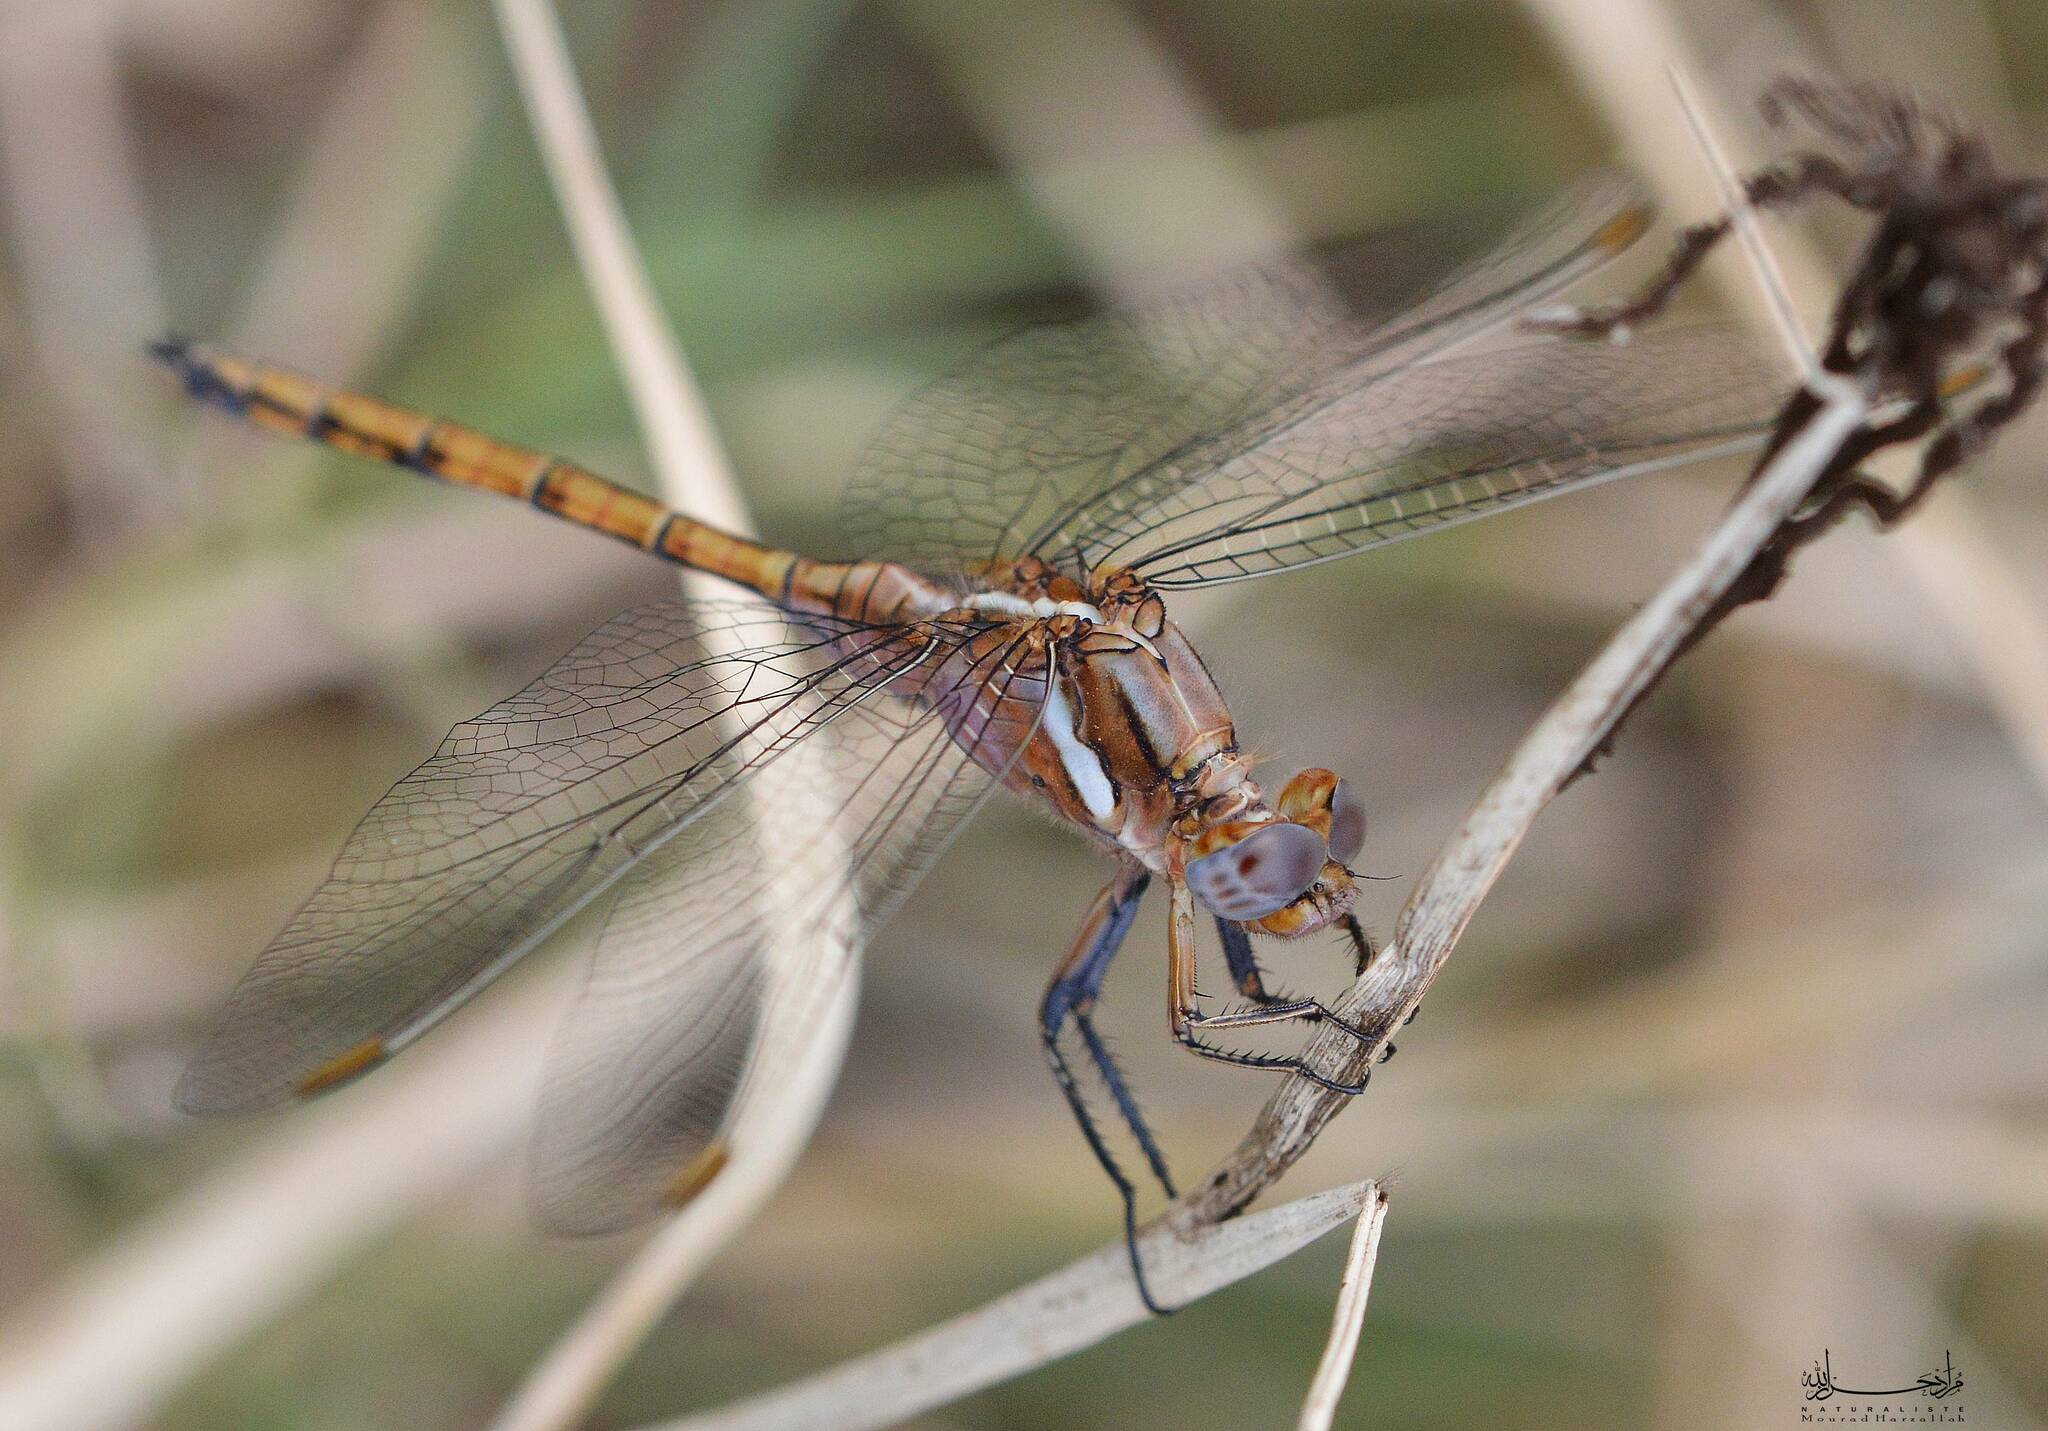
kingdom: Animalia
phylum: Arthropoda
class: Insecta
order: Odonata
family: Libellulidae
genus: Orthetrum
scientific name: Orthetrum chrysostigma
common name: Epaulet skimmer
